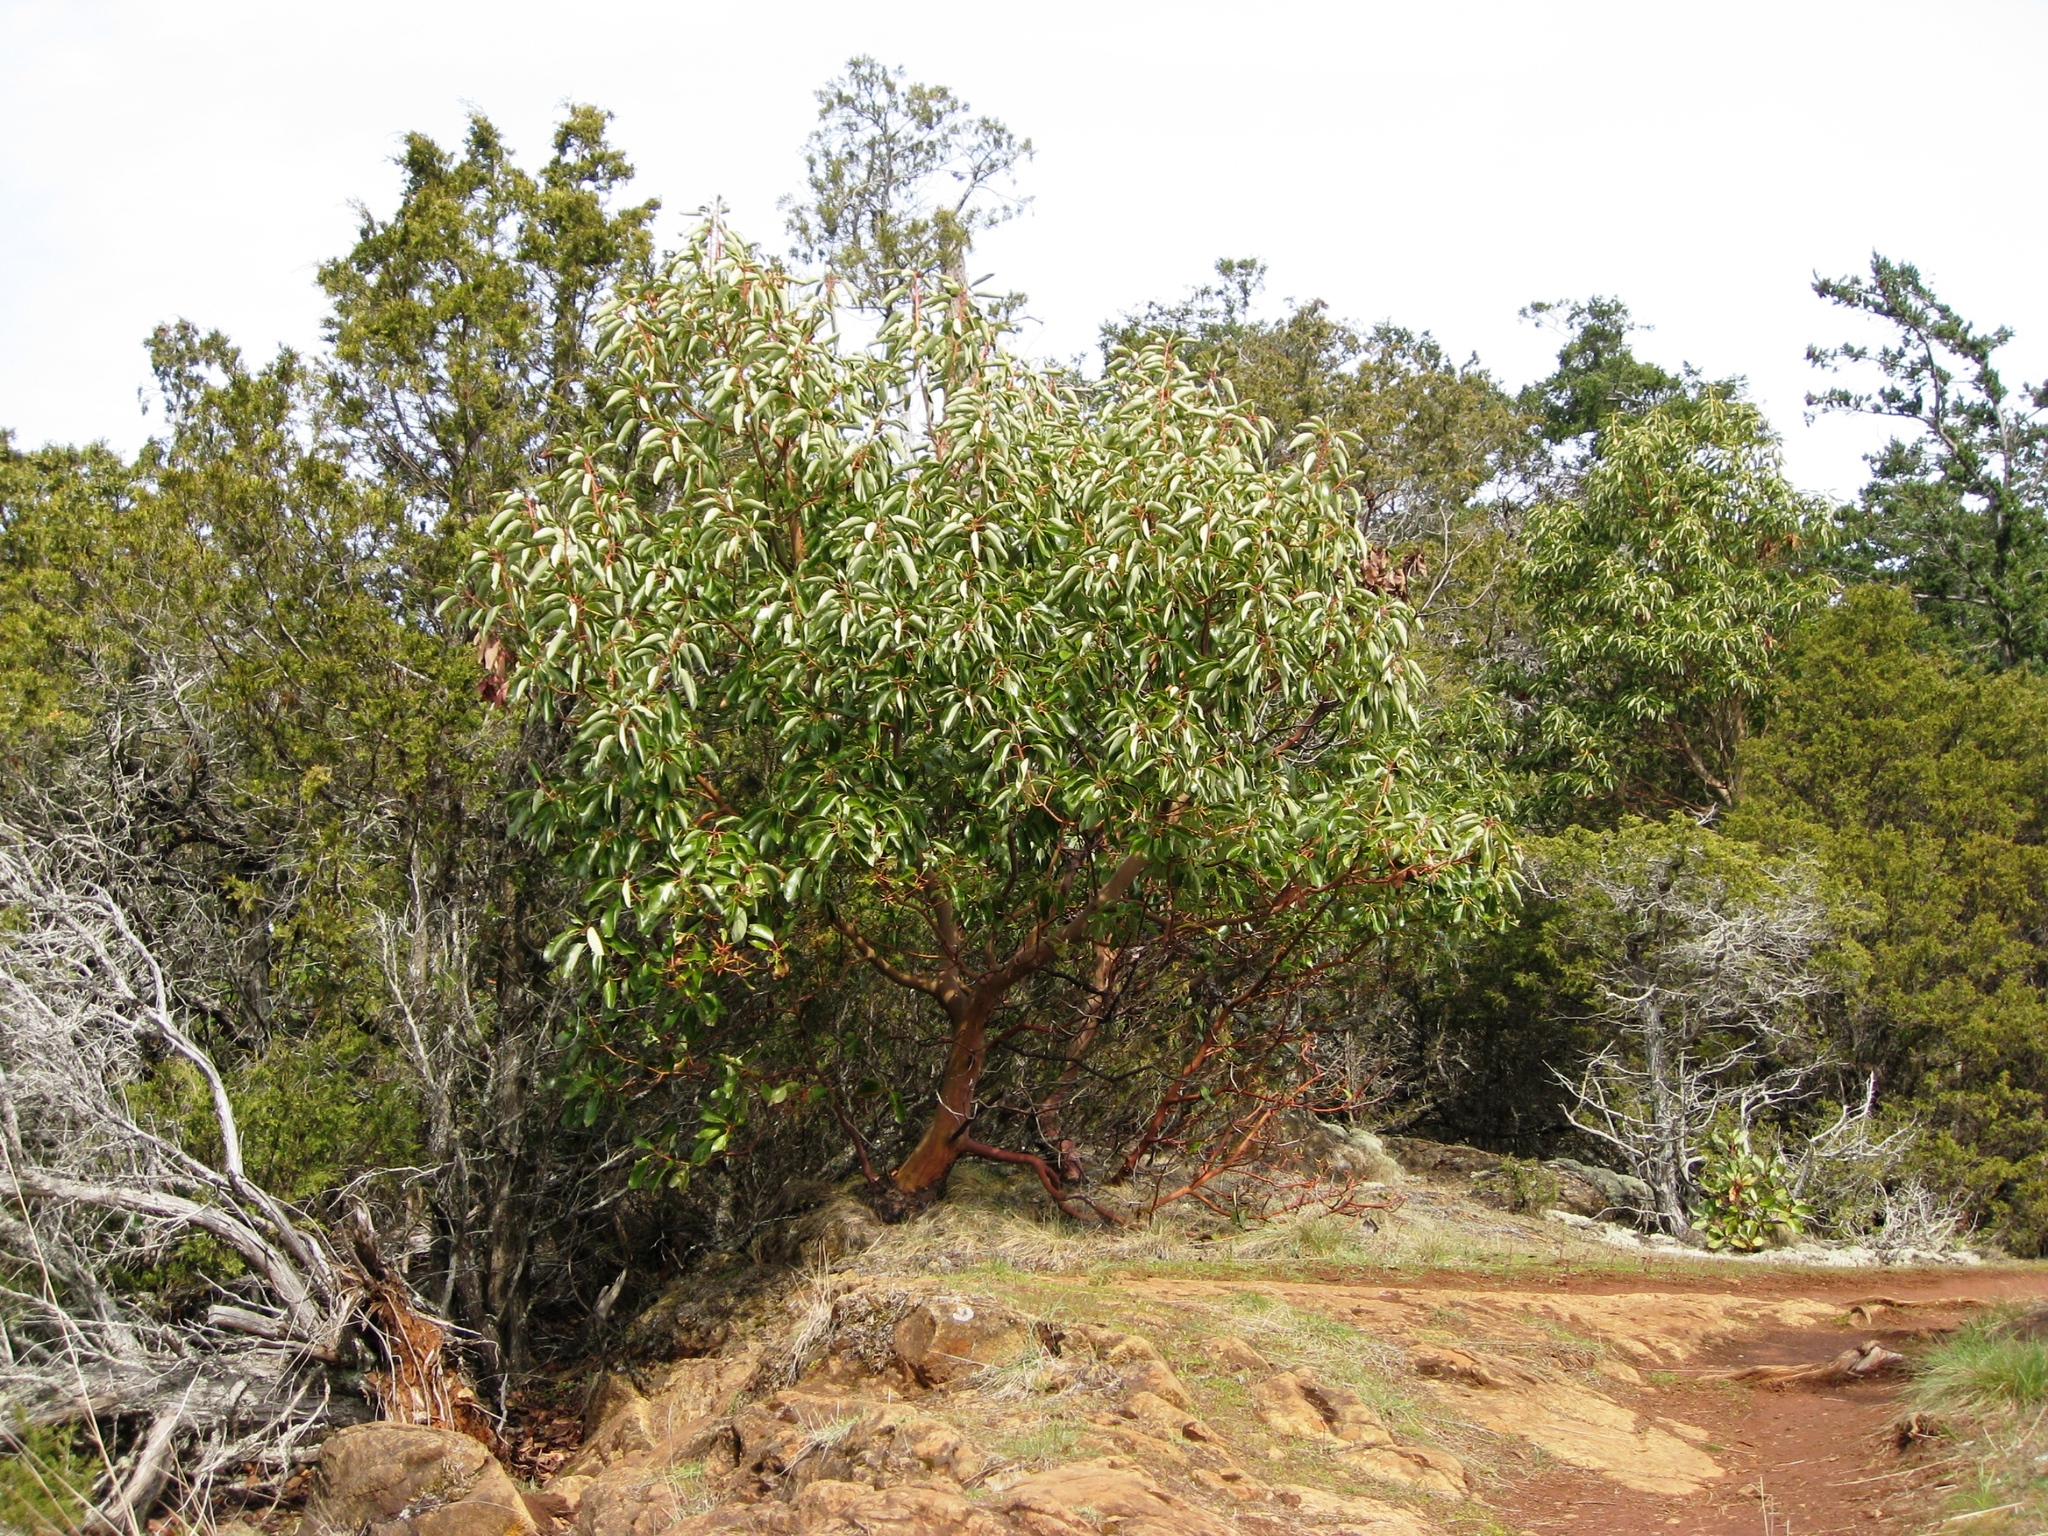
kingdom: Plantae
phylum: Tracheophyta
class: Magnoliopsida
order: Ericales
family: Ericaceae
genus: Arbutus
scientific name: Arbutus menziesii
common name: Pacific madrone
